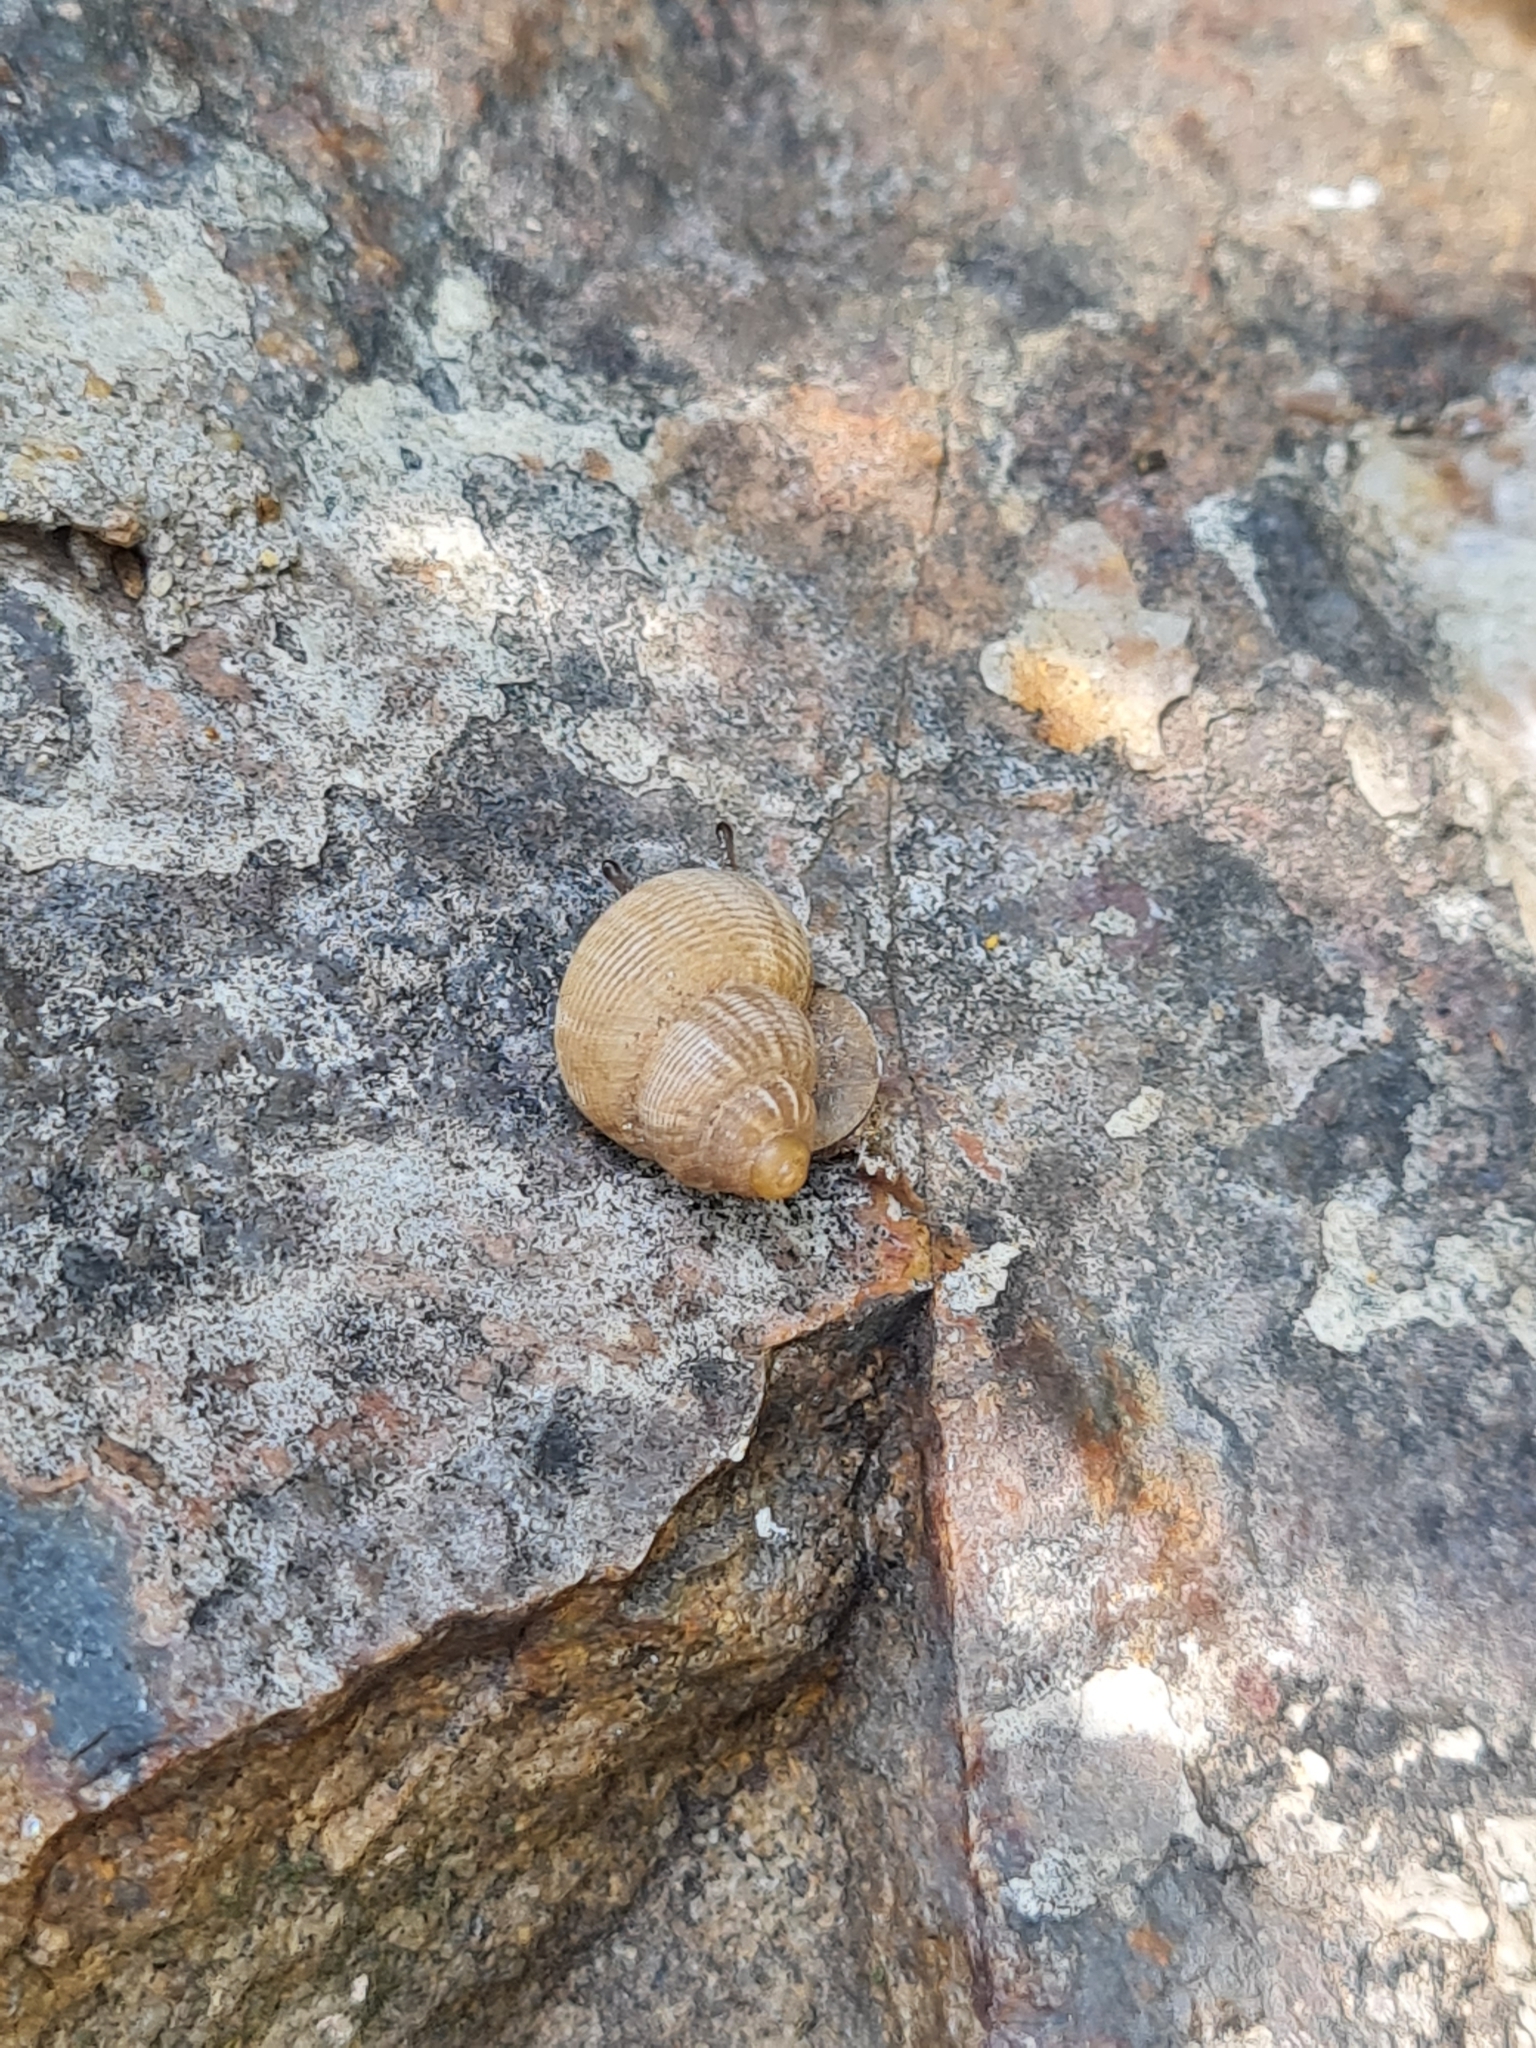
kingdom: Animalia
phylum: Mollusca
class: Gastropoda
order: Littorinimorpha
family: Pomatiidae
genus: Pomatias
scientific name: Pomatias elegans
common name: Red-mouthed snail
